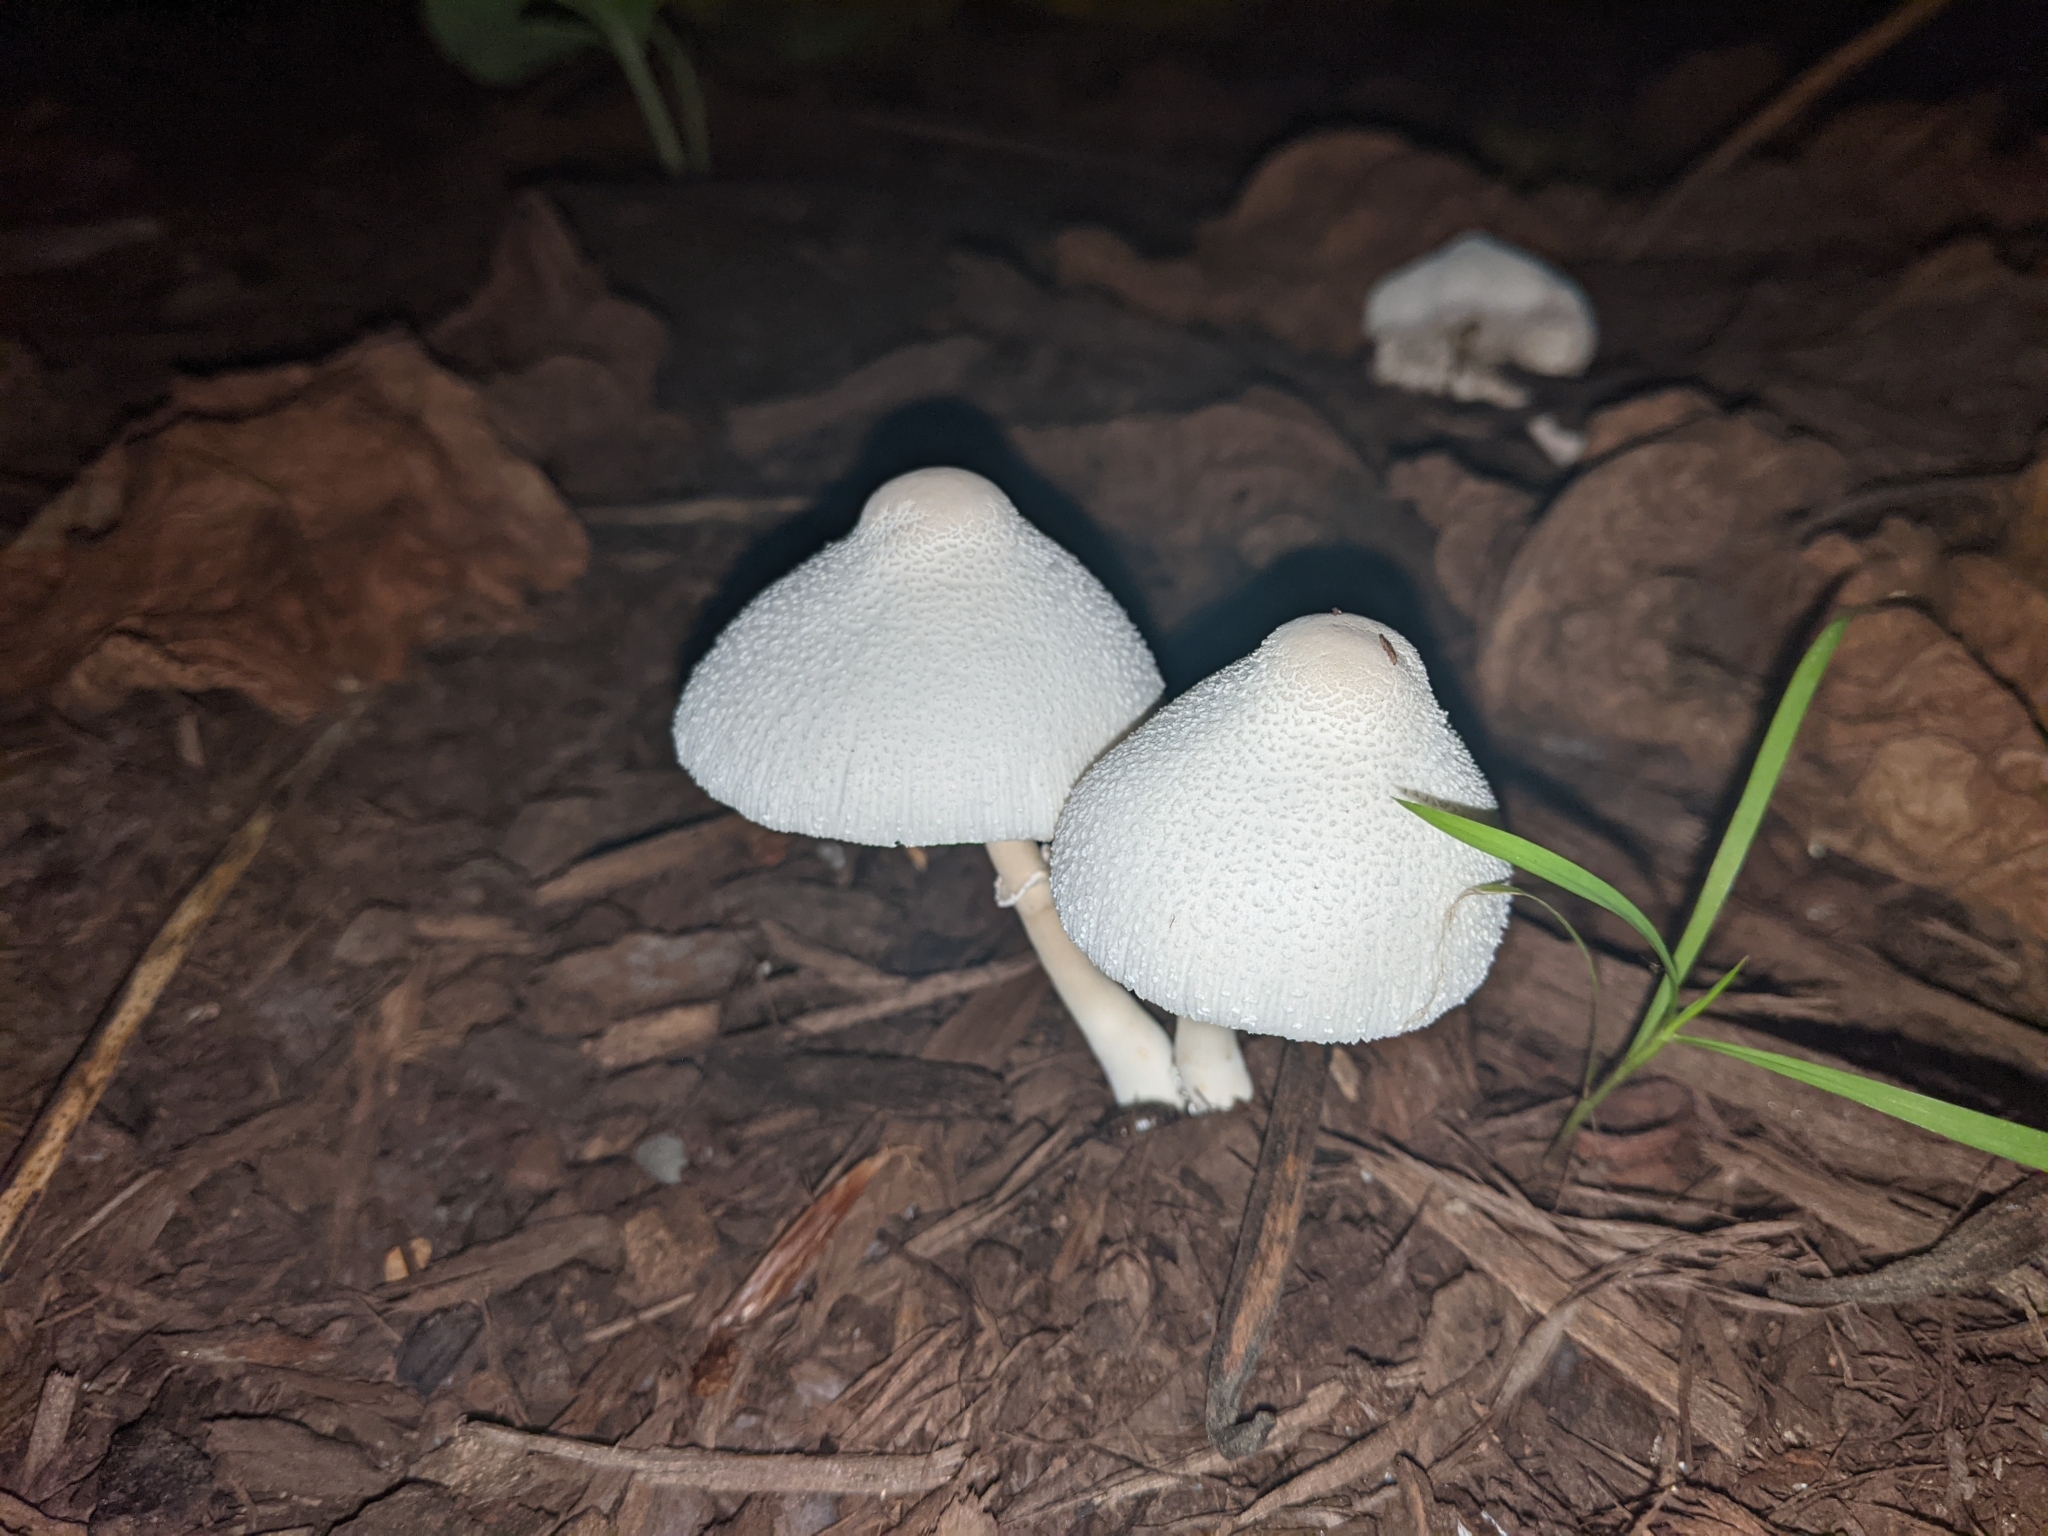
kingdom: Fungi
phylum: Basidiomycota
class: Agaricomycetes
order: Agaricales
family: Agaricaceae
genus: Leucocoprinus
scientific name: Leucocoprinus cepistipes
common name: Onion-stalk parasol
